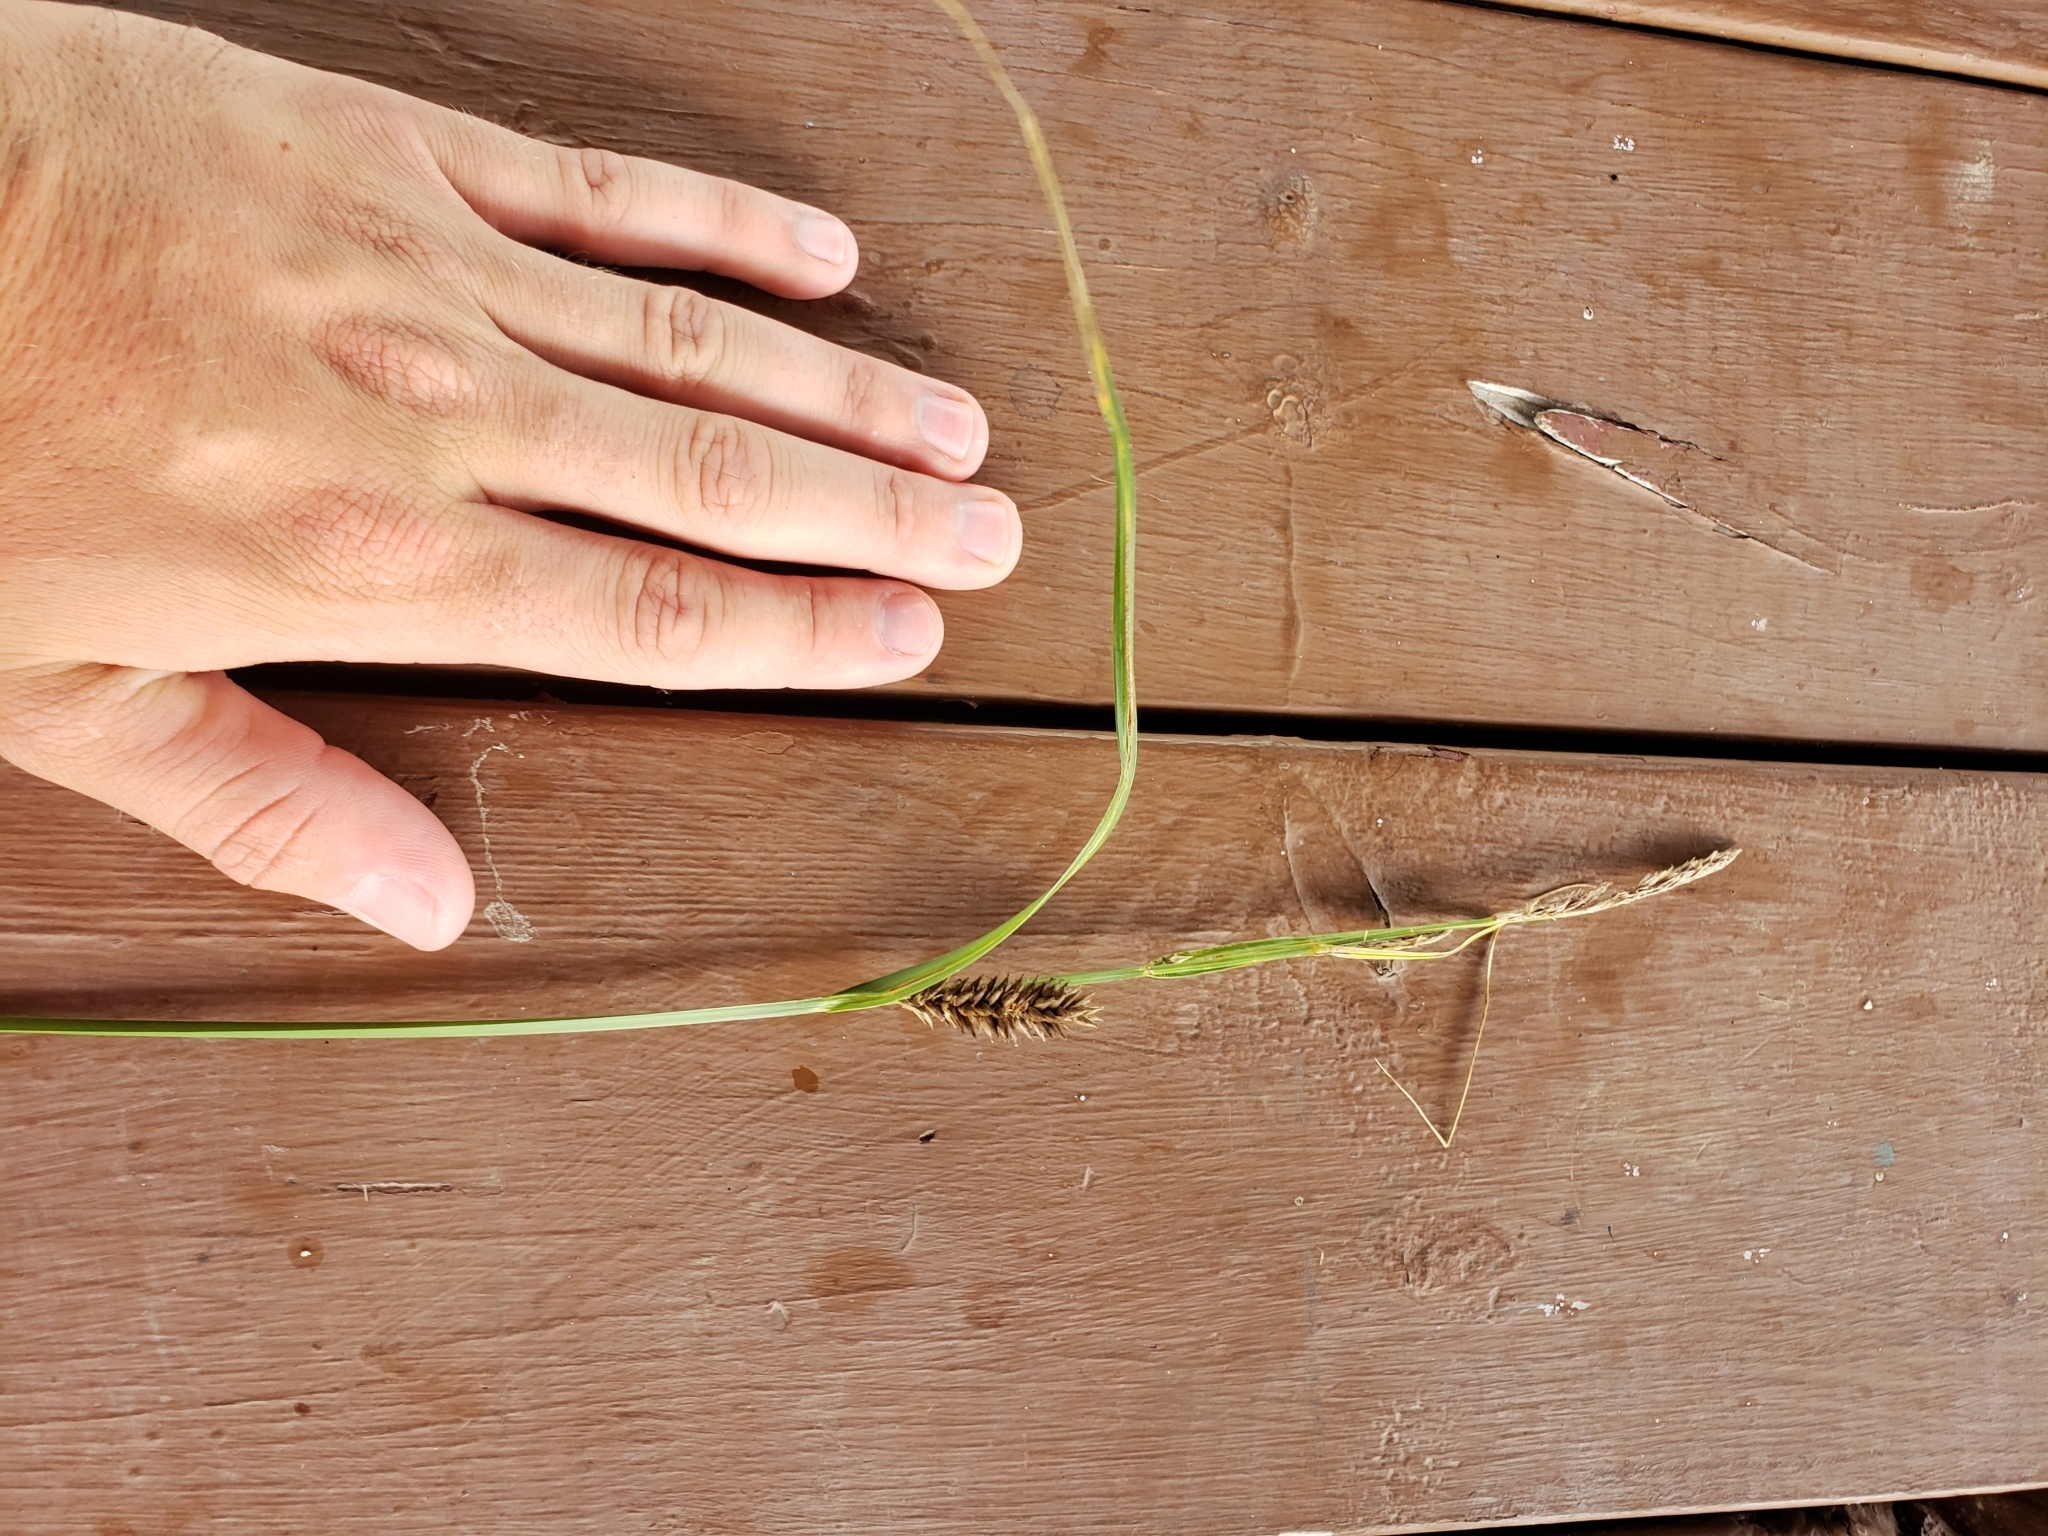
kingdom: Plantae
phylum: Tracheophyta
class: Liliopsida
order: Poales
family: Cyperaceae
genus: Carex
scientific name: Carex lacustris
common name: Common lake sedge
